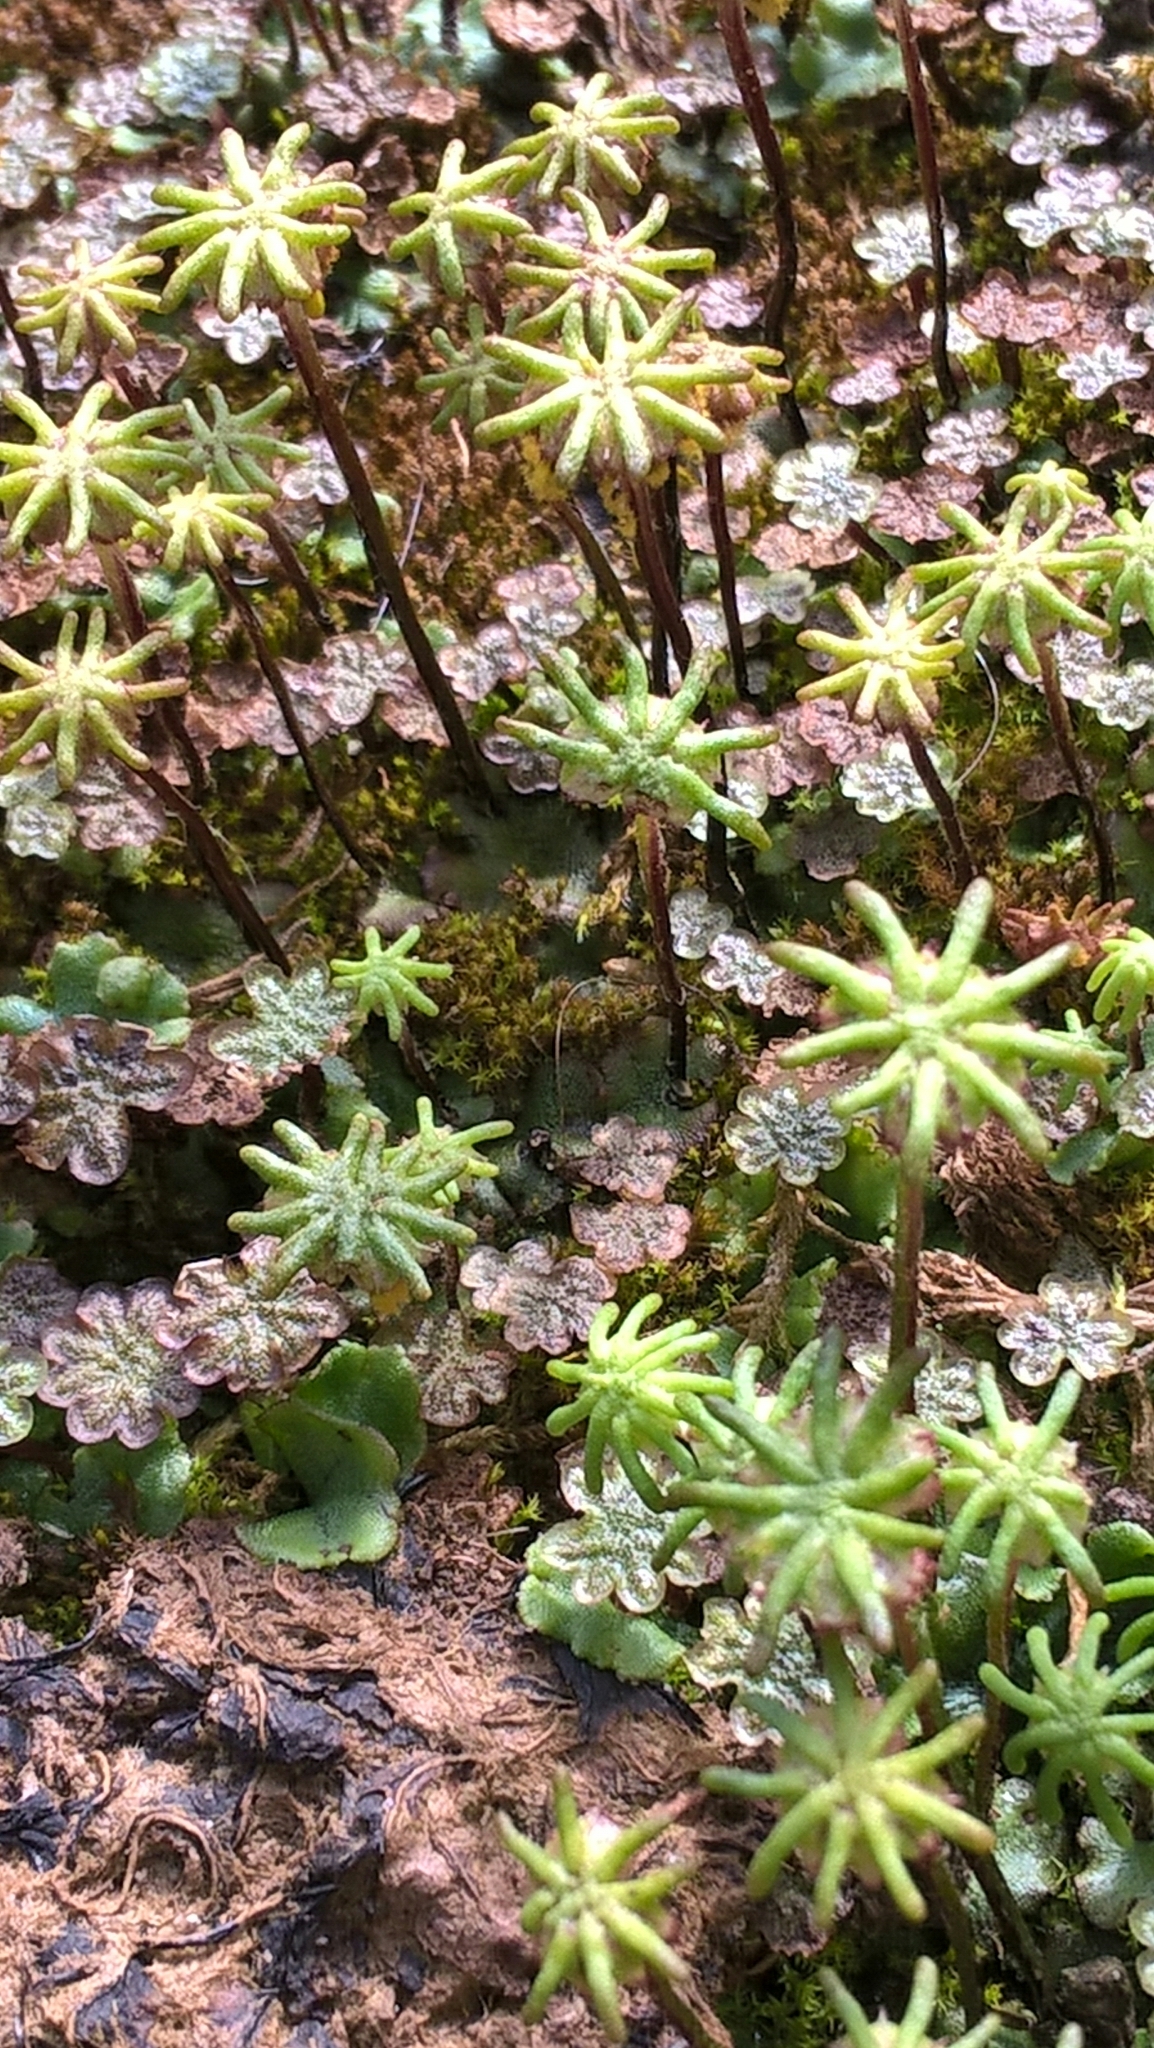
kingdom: Plantae
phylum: Marchantiophyta
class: Marchantiopsida
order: Marchantiales
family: Marchantiaceae
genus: Marchantia
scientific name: Marchantia polymorpha
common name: Common liverwort
